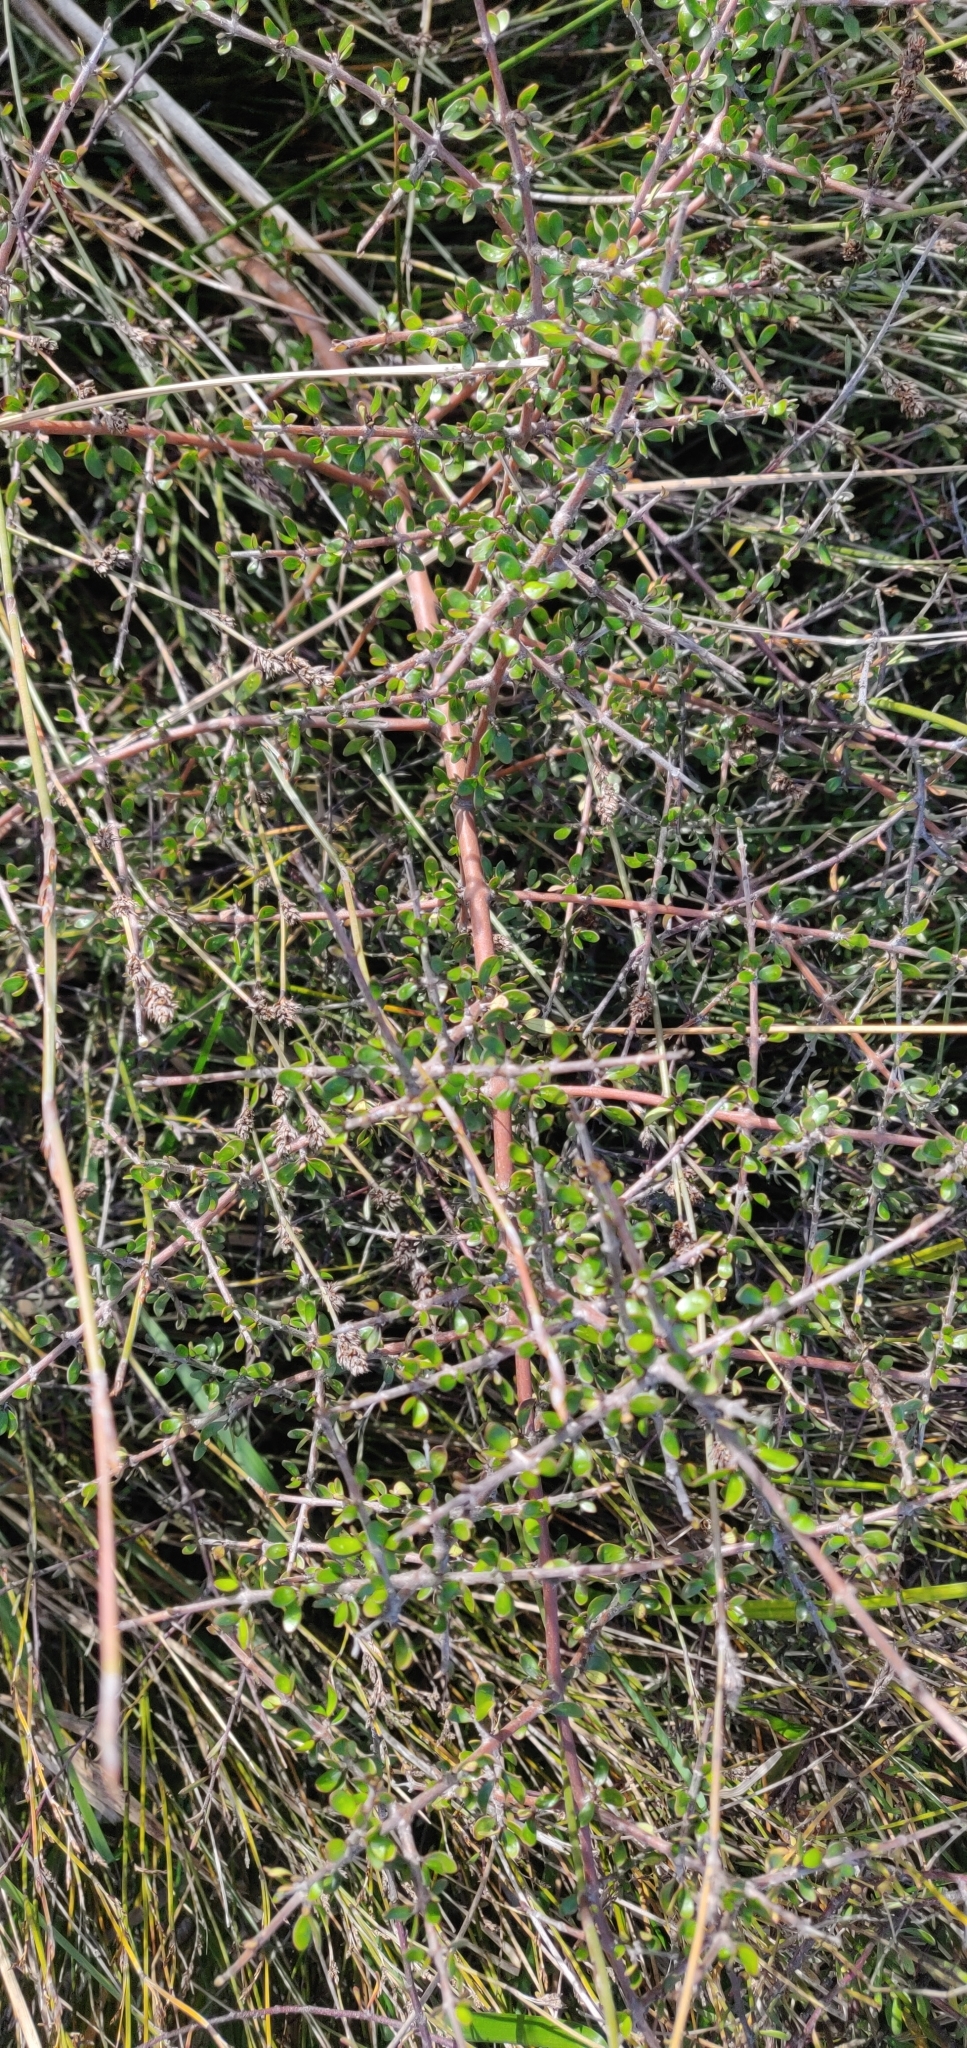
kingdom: Plantae
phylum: Tracheophyta
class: Magnoliopsida
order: Gentianales
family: Rubiaceae
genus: Coprosma
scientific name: Coprosma propinqua
